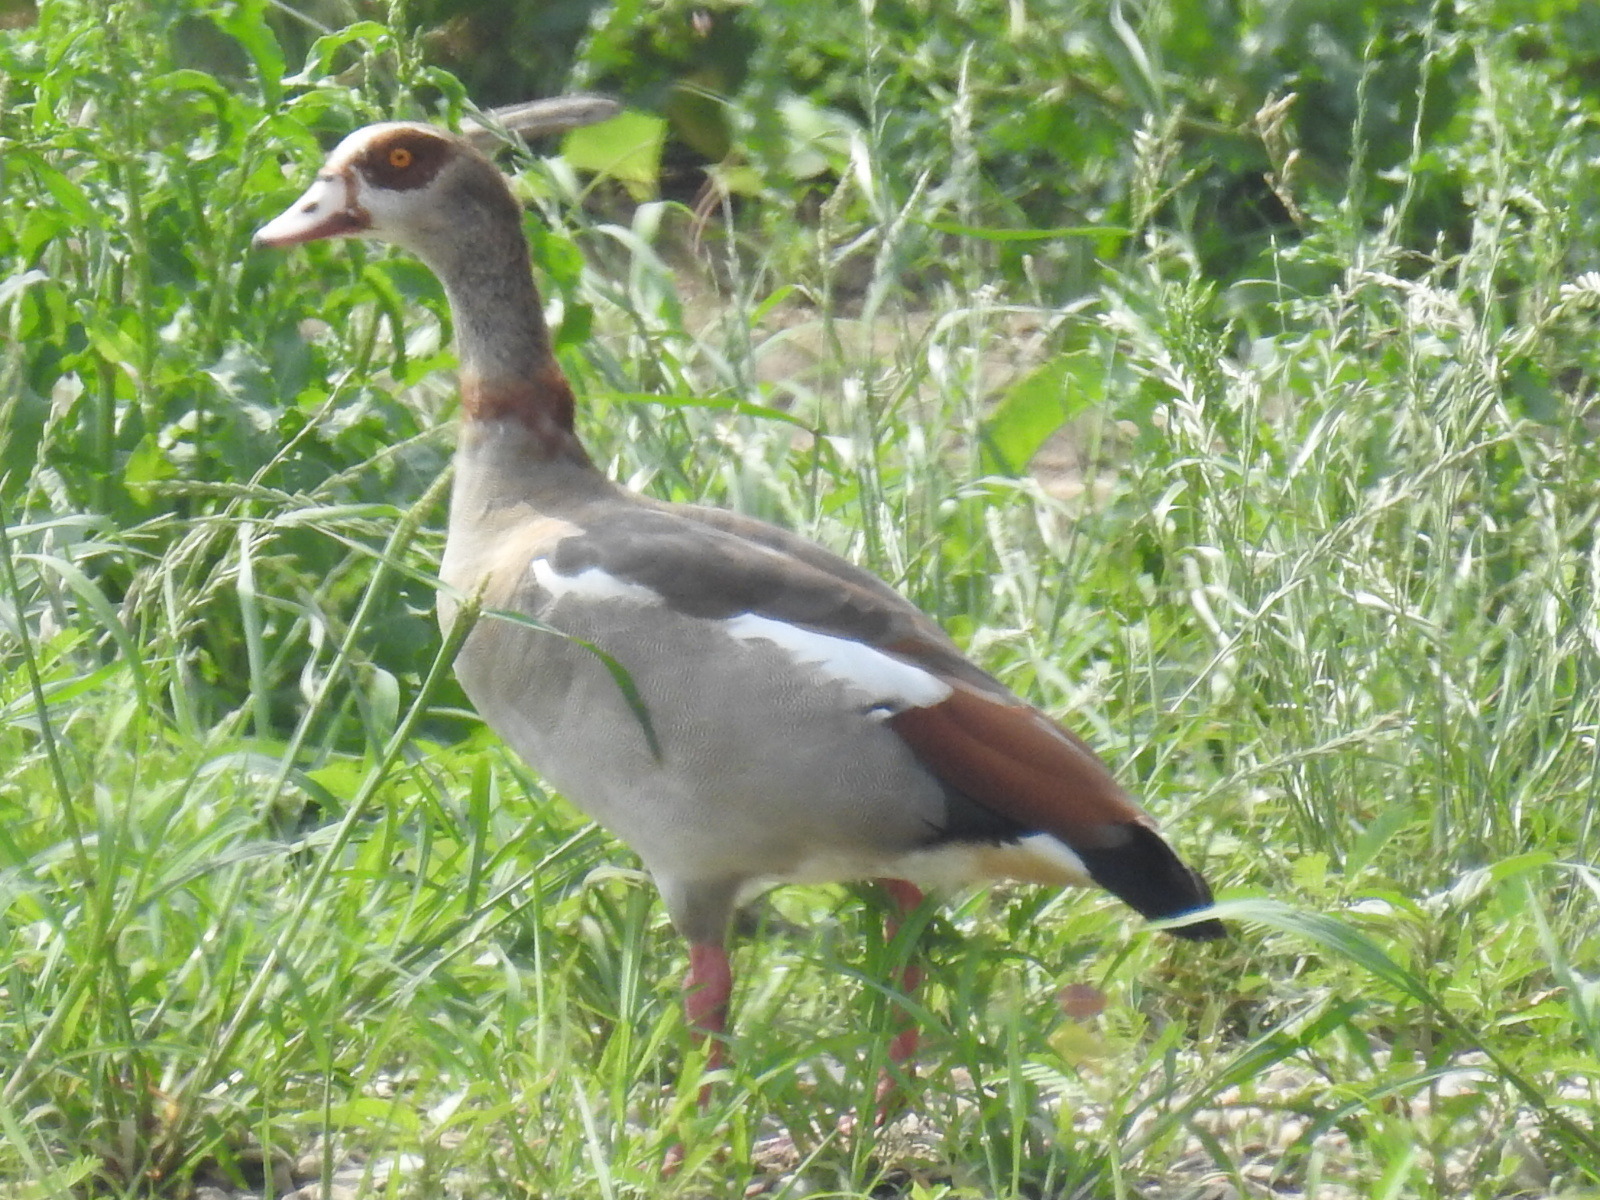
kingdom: Animalia
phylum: Chordata
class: Aves
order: Anseriformes
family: Anatidae
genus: Alopochen
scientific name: Alopochen aegyptiaca
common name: Egyptian goose
